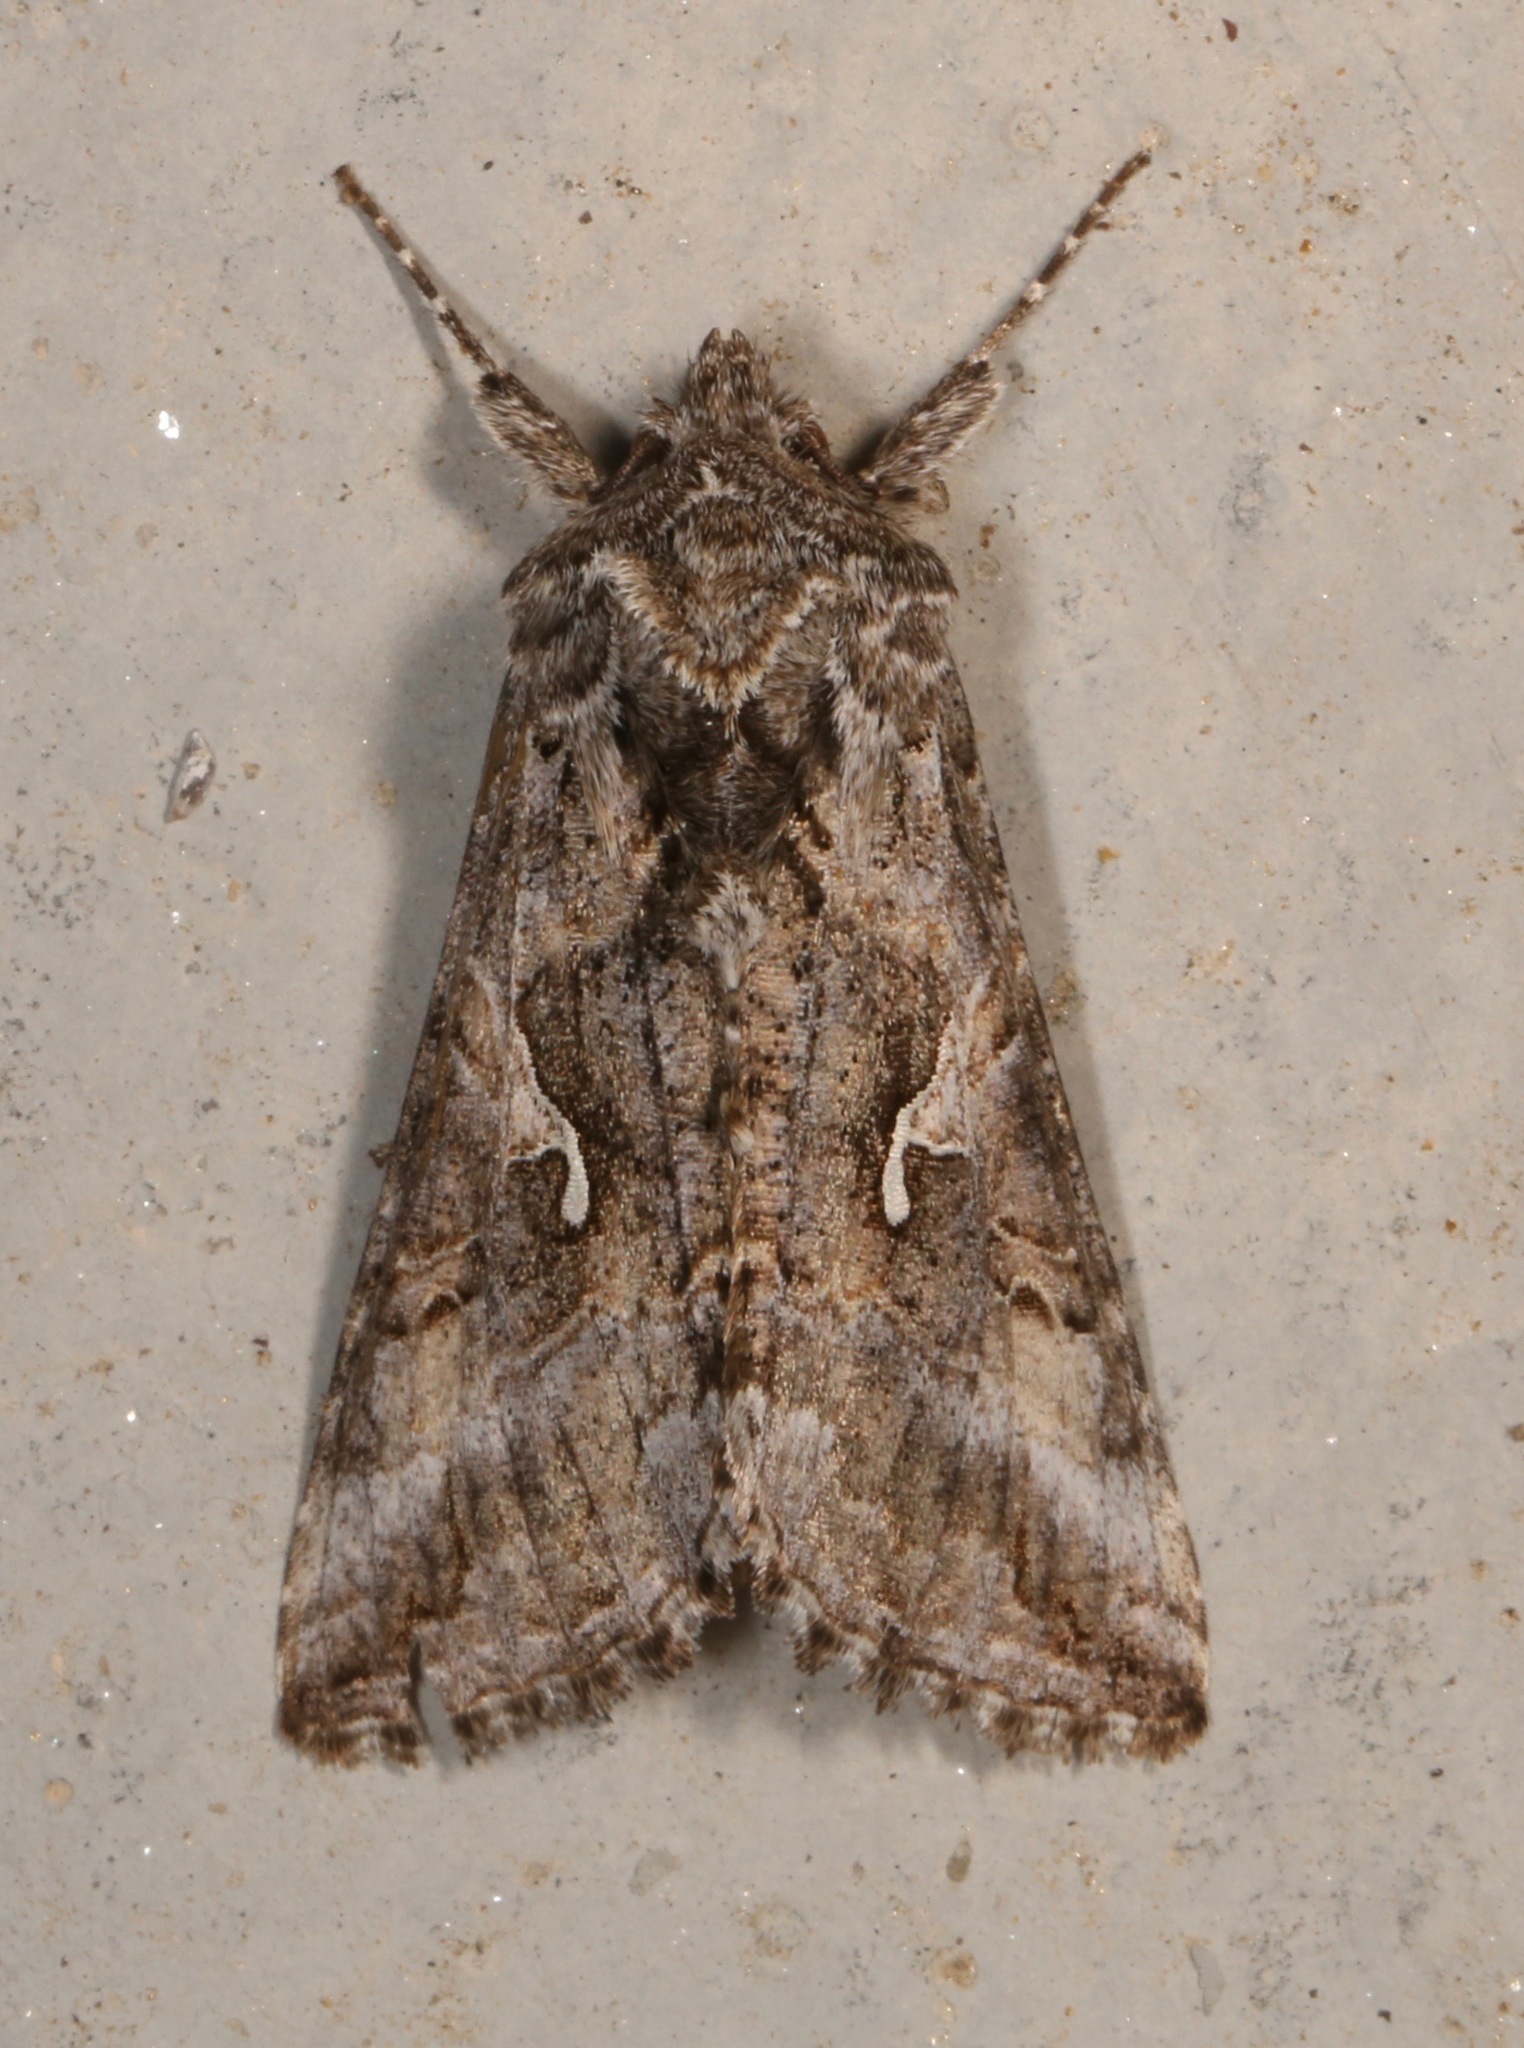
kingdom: Animalia
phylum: Arthropoda
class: Insecta
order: Lepidoptera
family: Noctuidae
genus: Autographa
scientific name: Autographa californica
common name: Alfalfa looper
